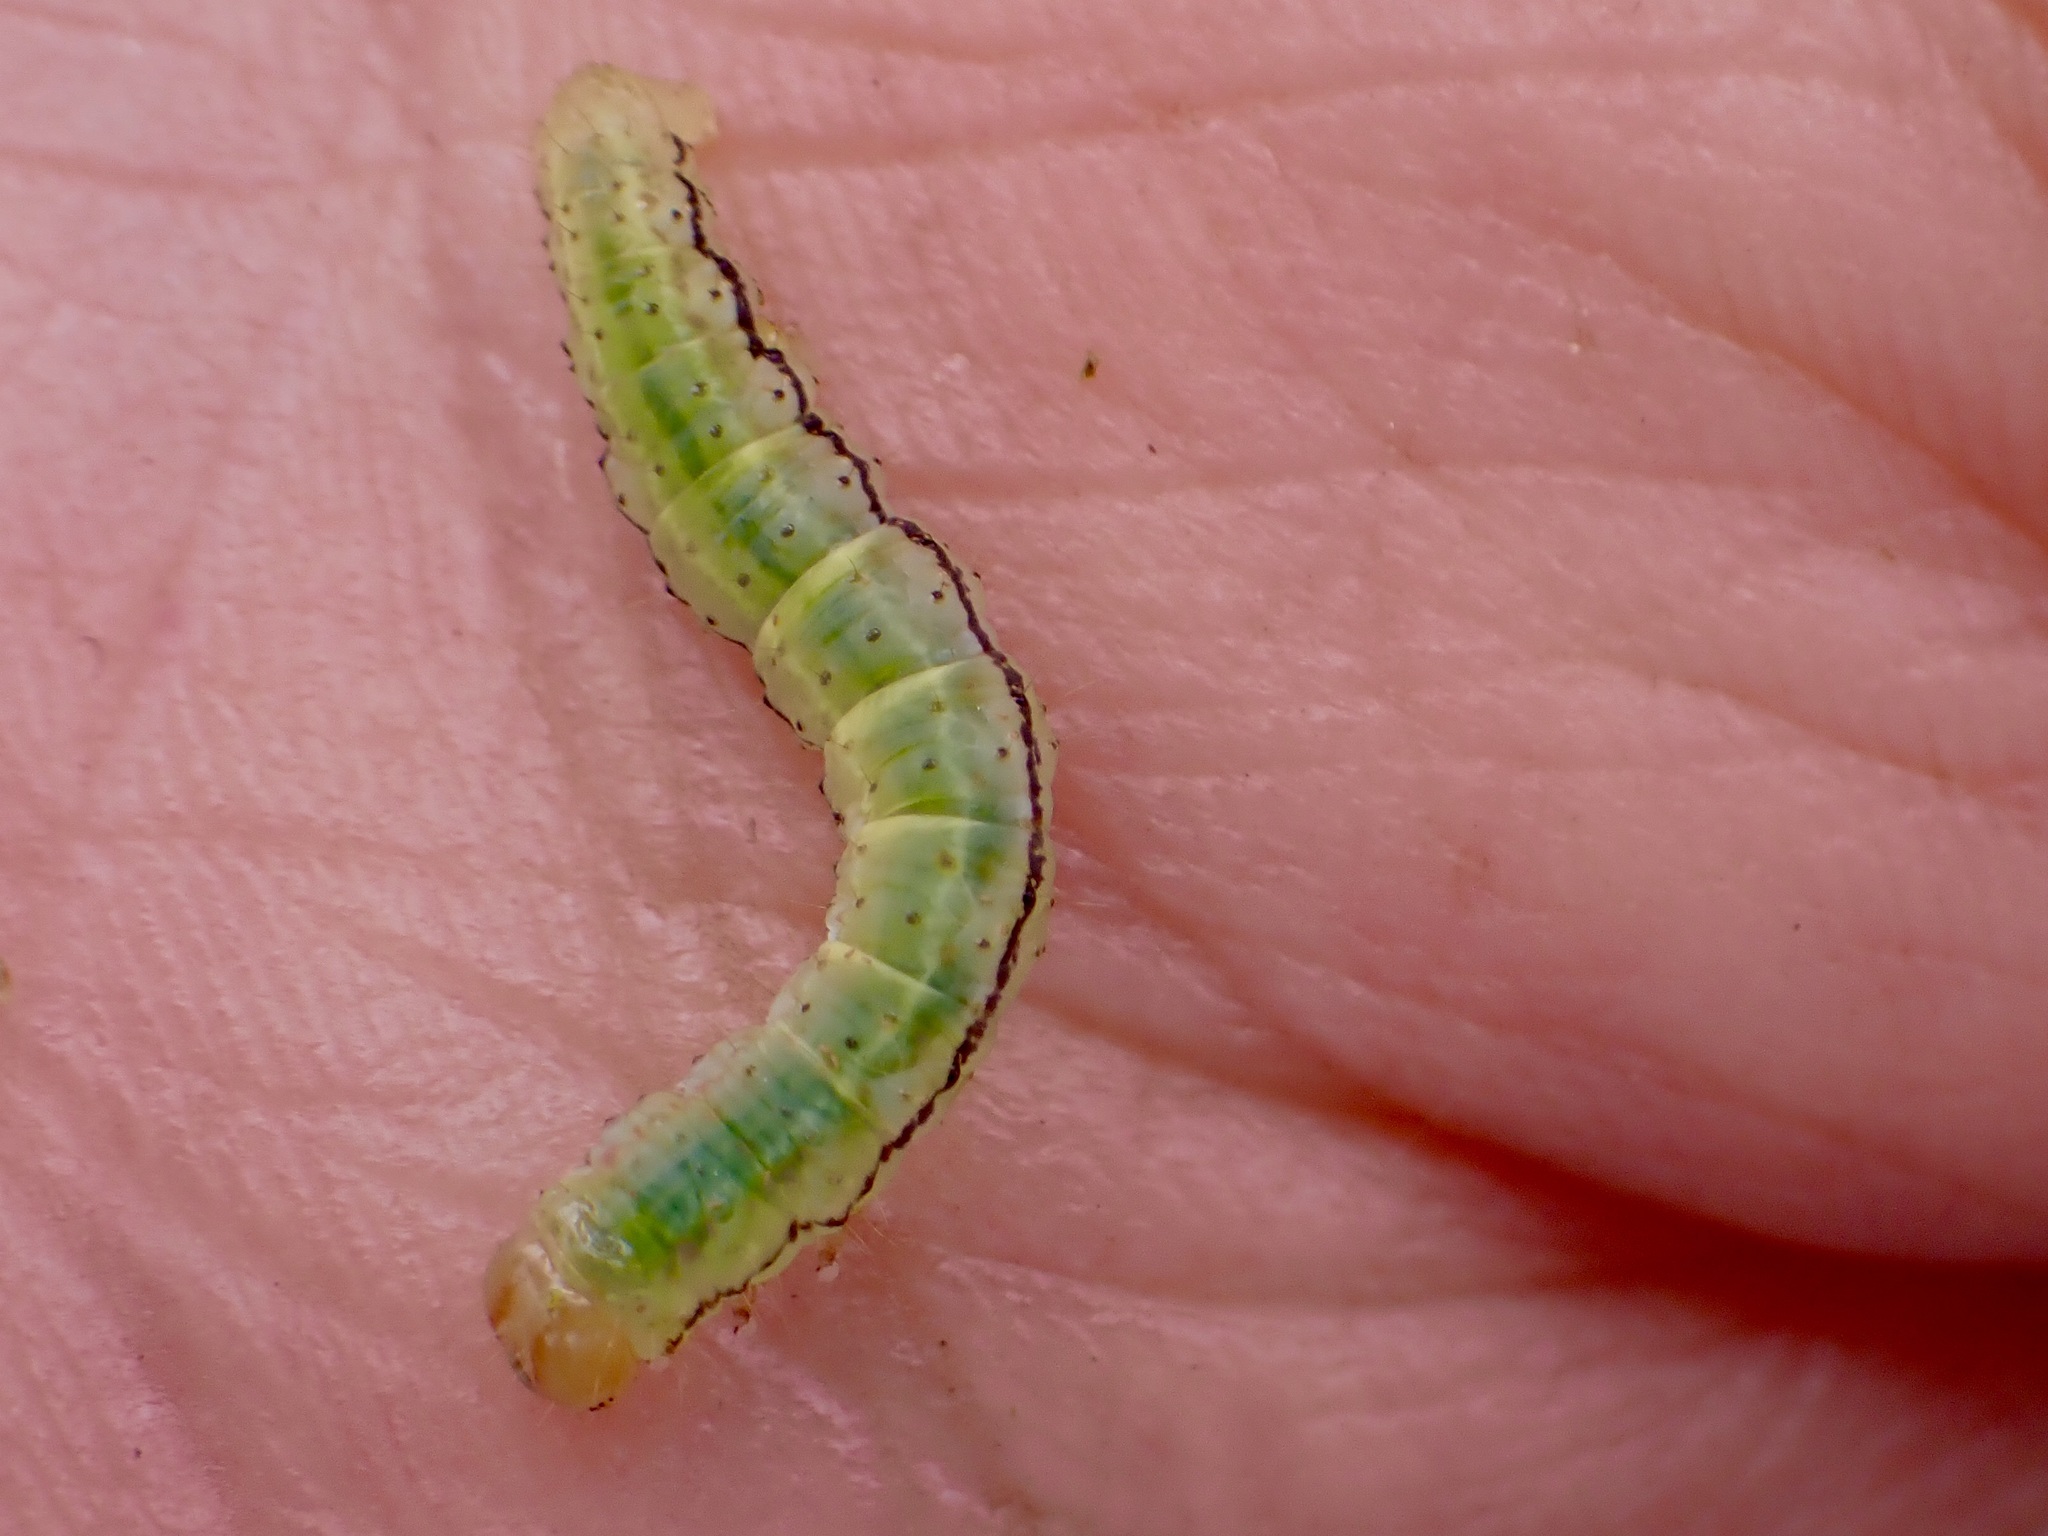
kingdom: Animalia
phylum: Arthropoda
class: Insecta
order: Lepidoptera
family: Geometridae
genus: Epiphryne
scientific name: Epiphryne verriculata
